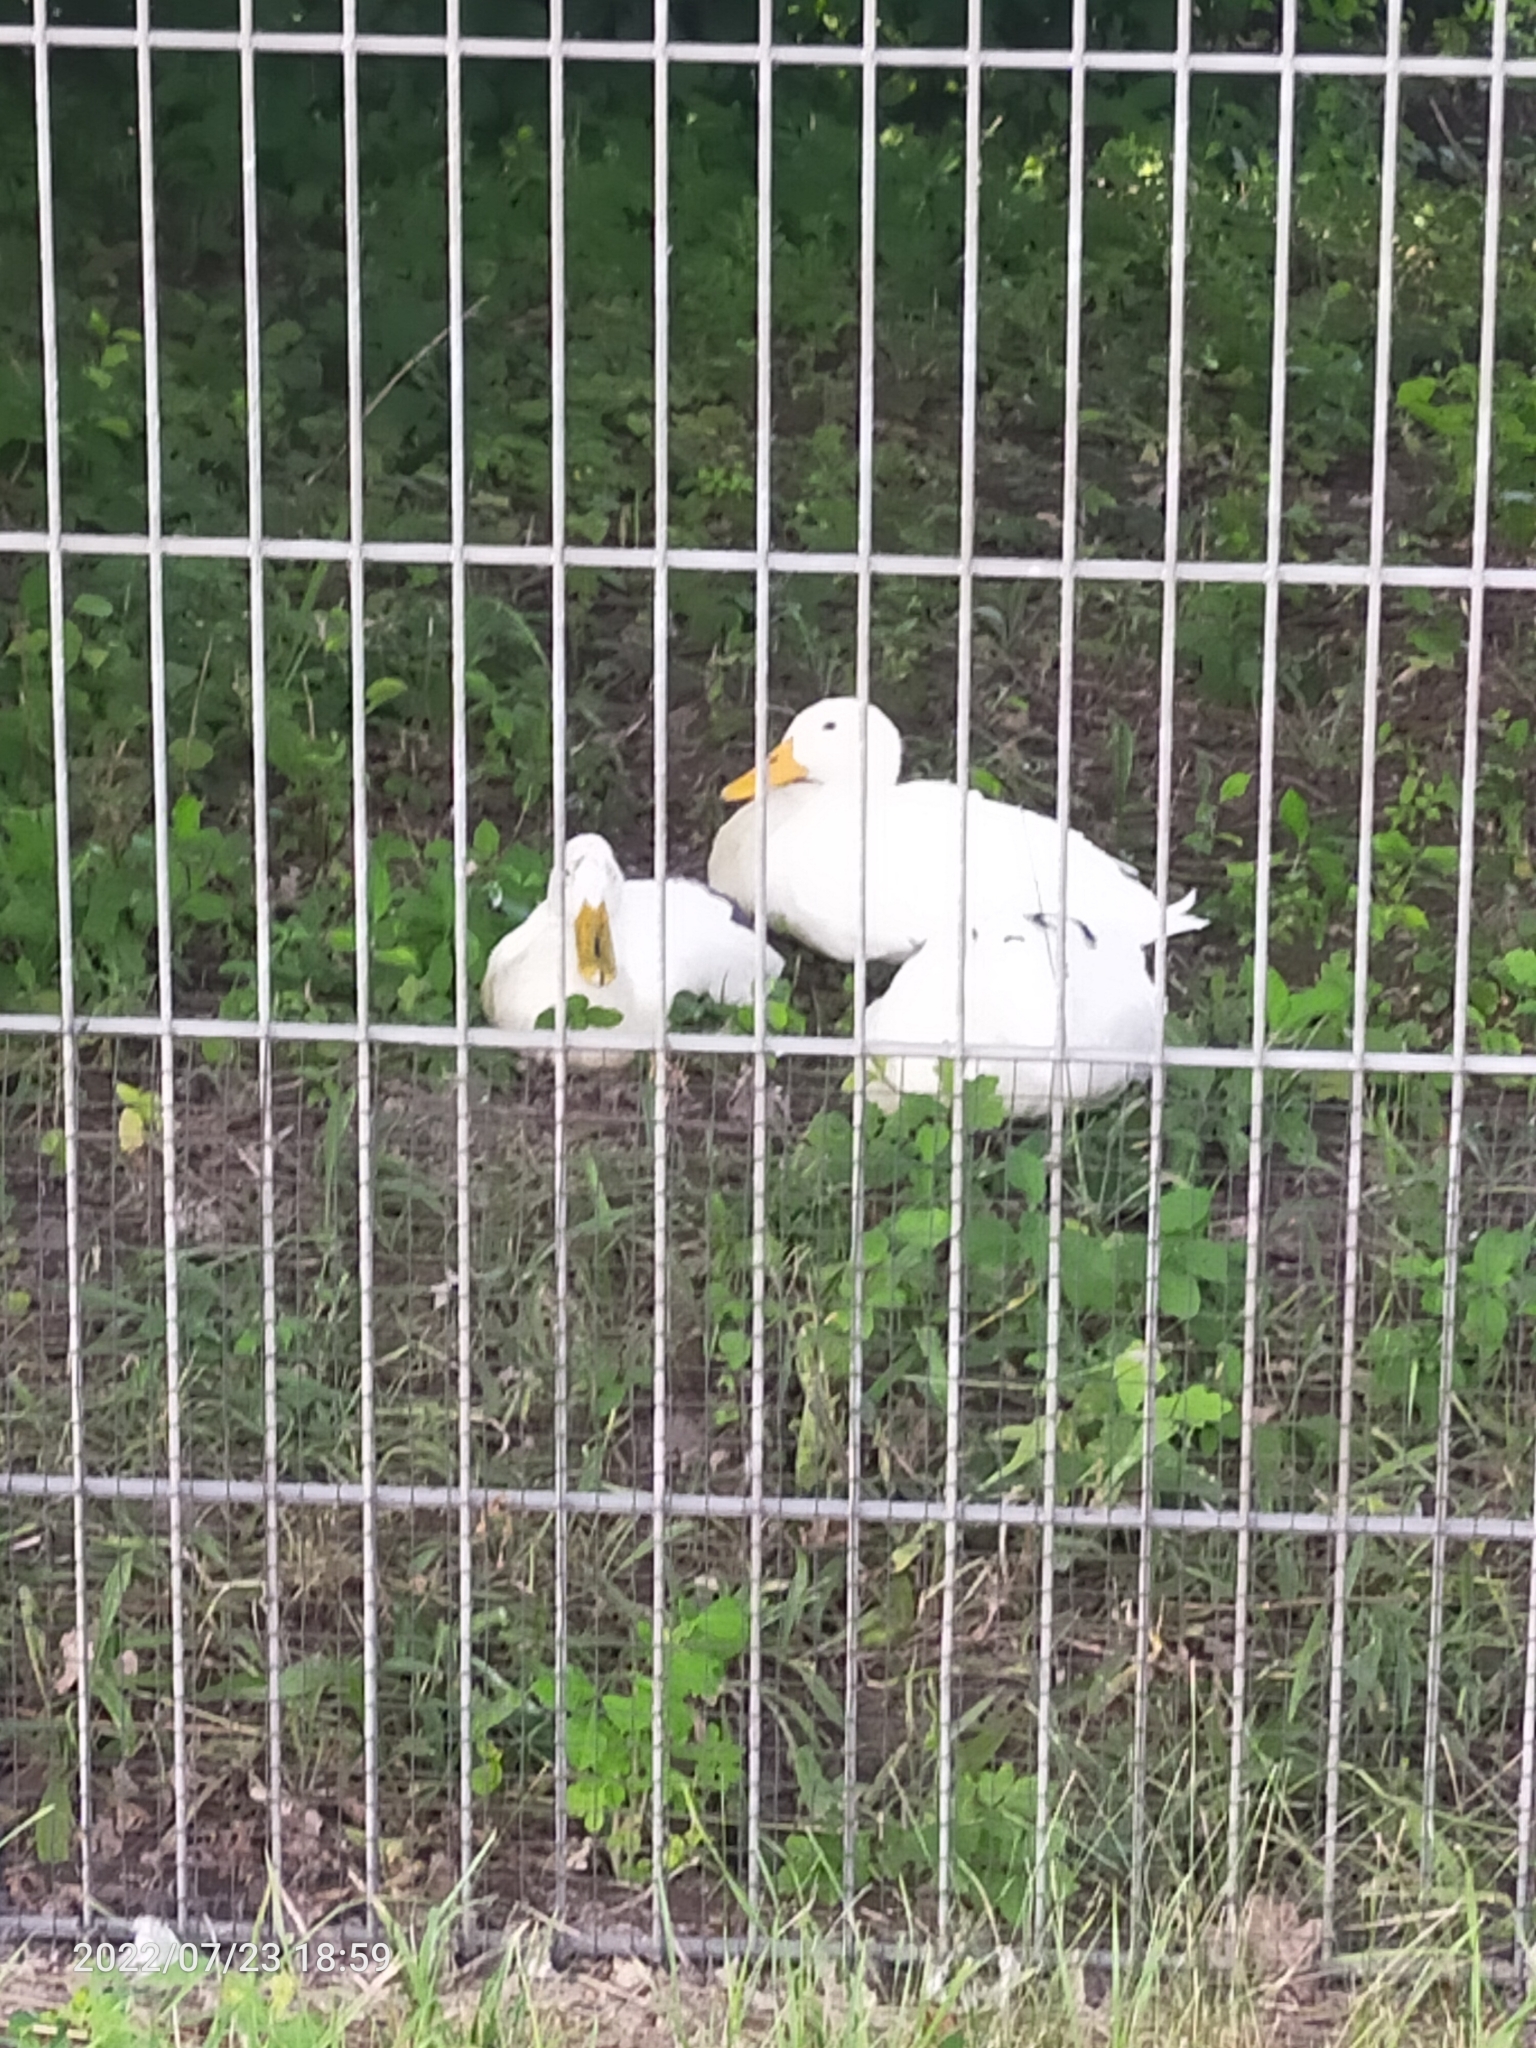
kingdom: Animalia
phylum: Chordata
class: Aves
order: Anseriformes
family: Anatidae
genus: Anas
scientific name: Anas platyrhynchos
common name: Mallard
